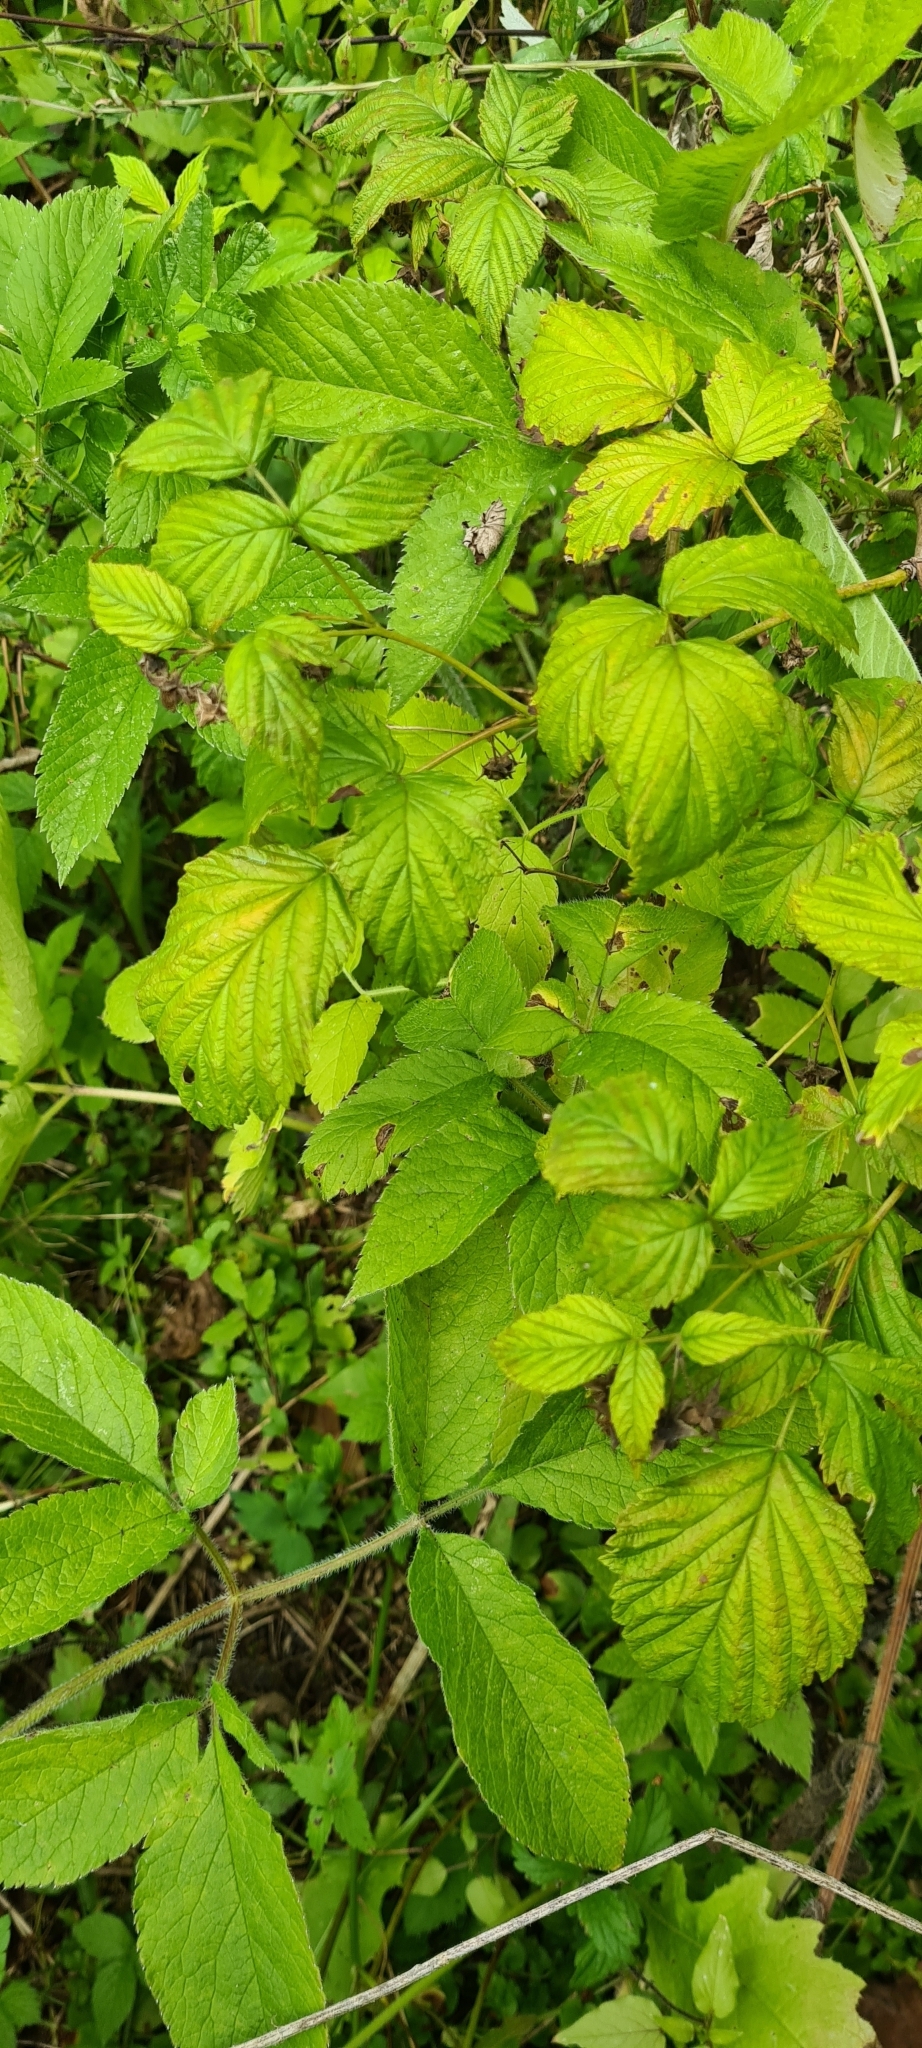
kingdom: Plantae
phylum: Tracheophyta
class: Magnoliopsida
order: Rosales
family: Rosaceae
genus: Rubus
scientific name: Rubus idaeus
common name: Raspberry
